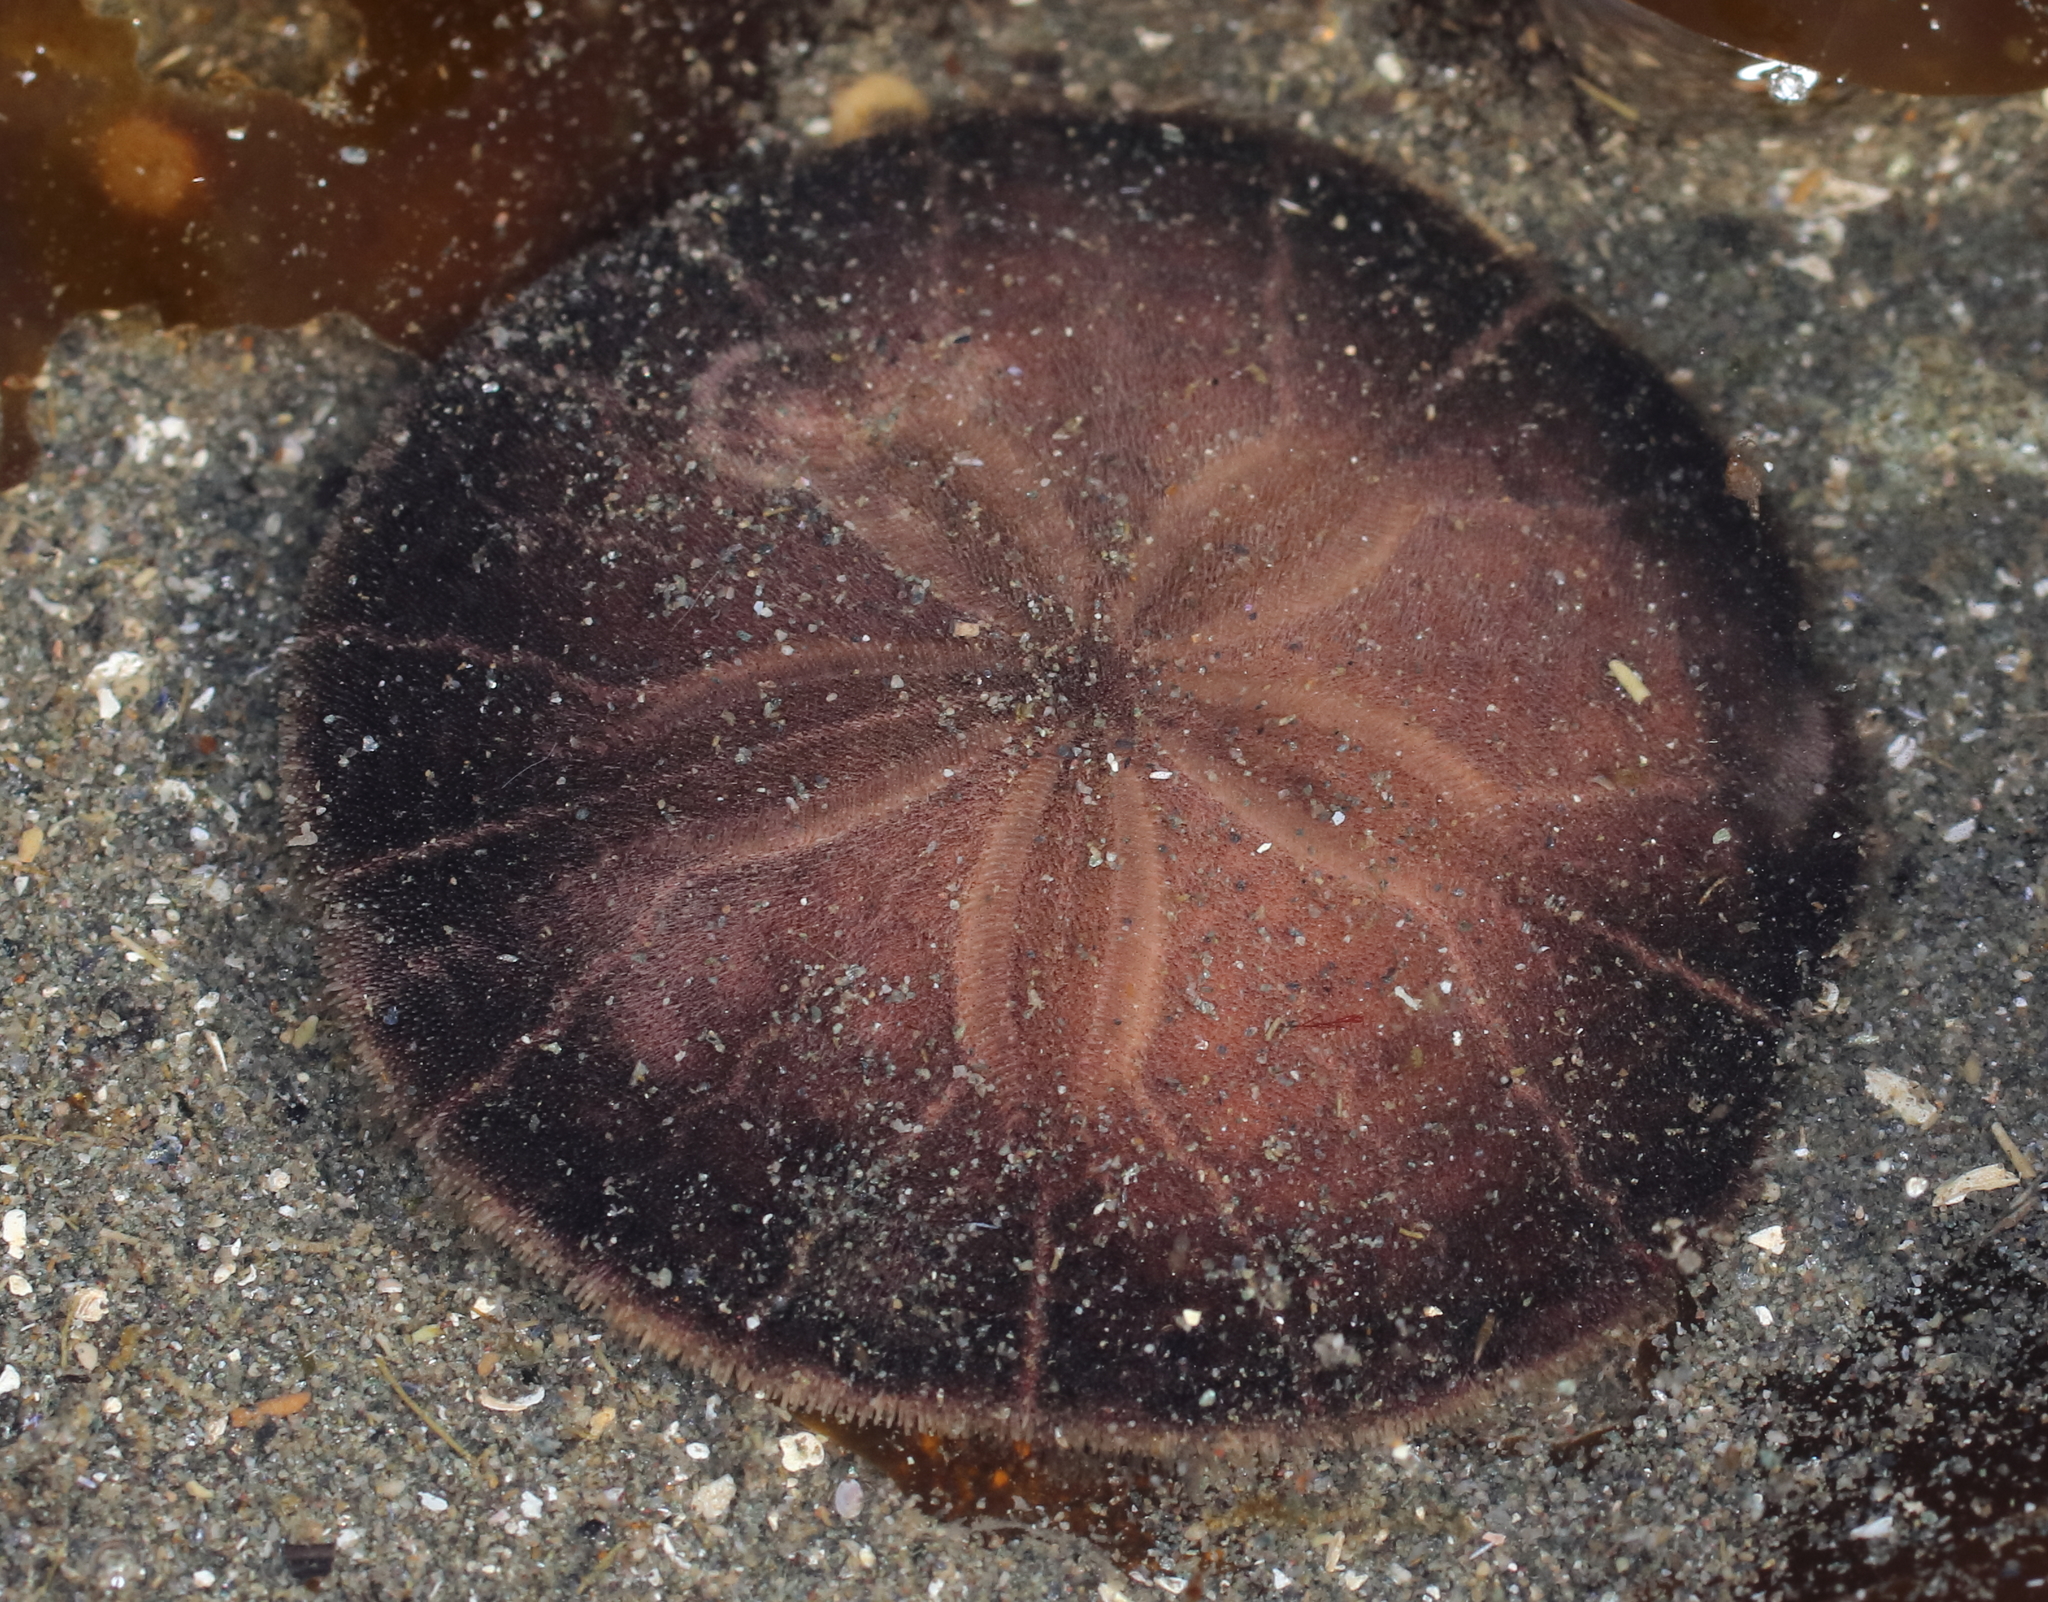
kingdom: Animalia
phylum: Echinodermata
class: Echinoidea
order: Echinolampadacea
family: Echinarachniidae
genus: Echinarachnius
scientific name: Echinarachnius parma
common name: Common sand dollar
